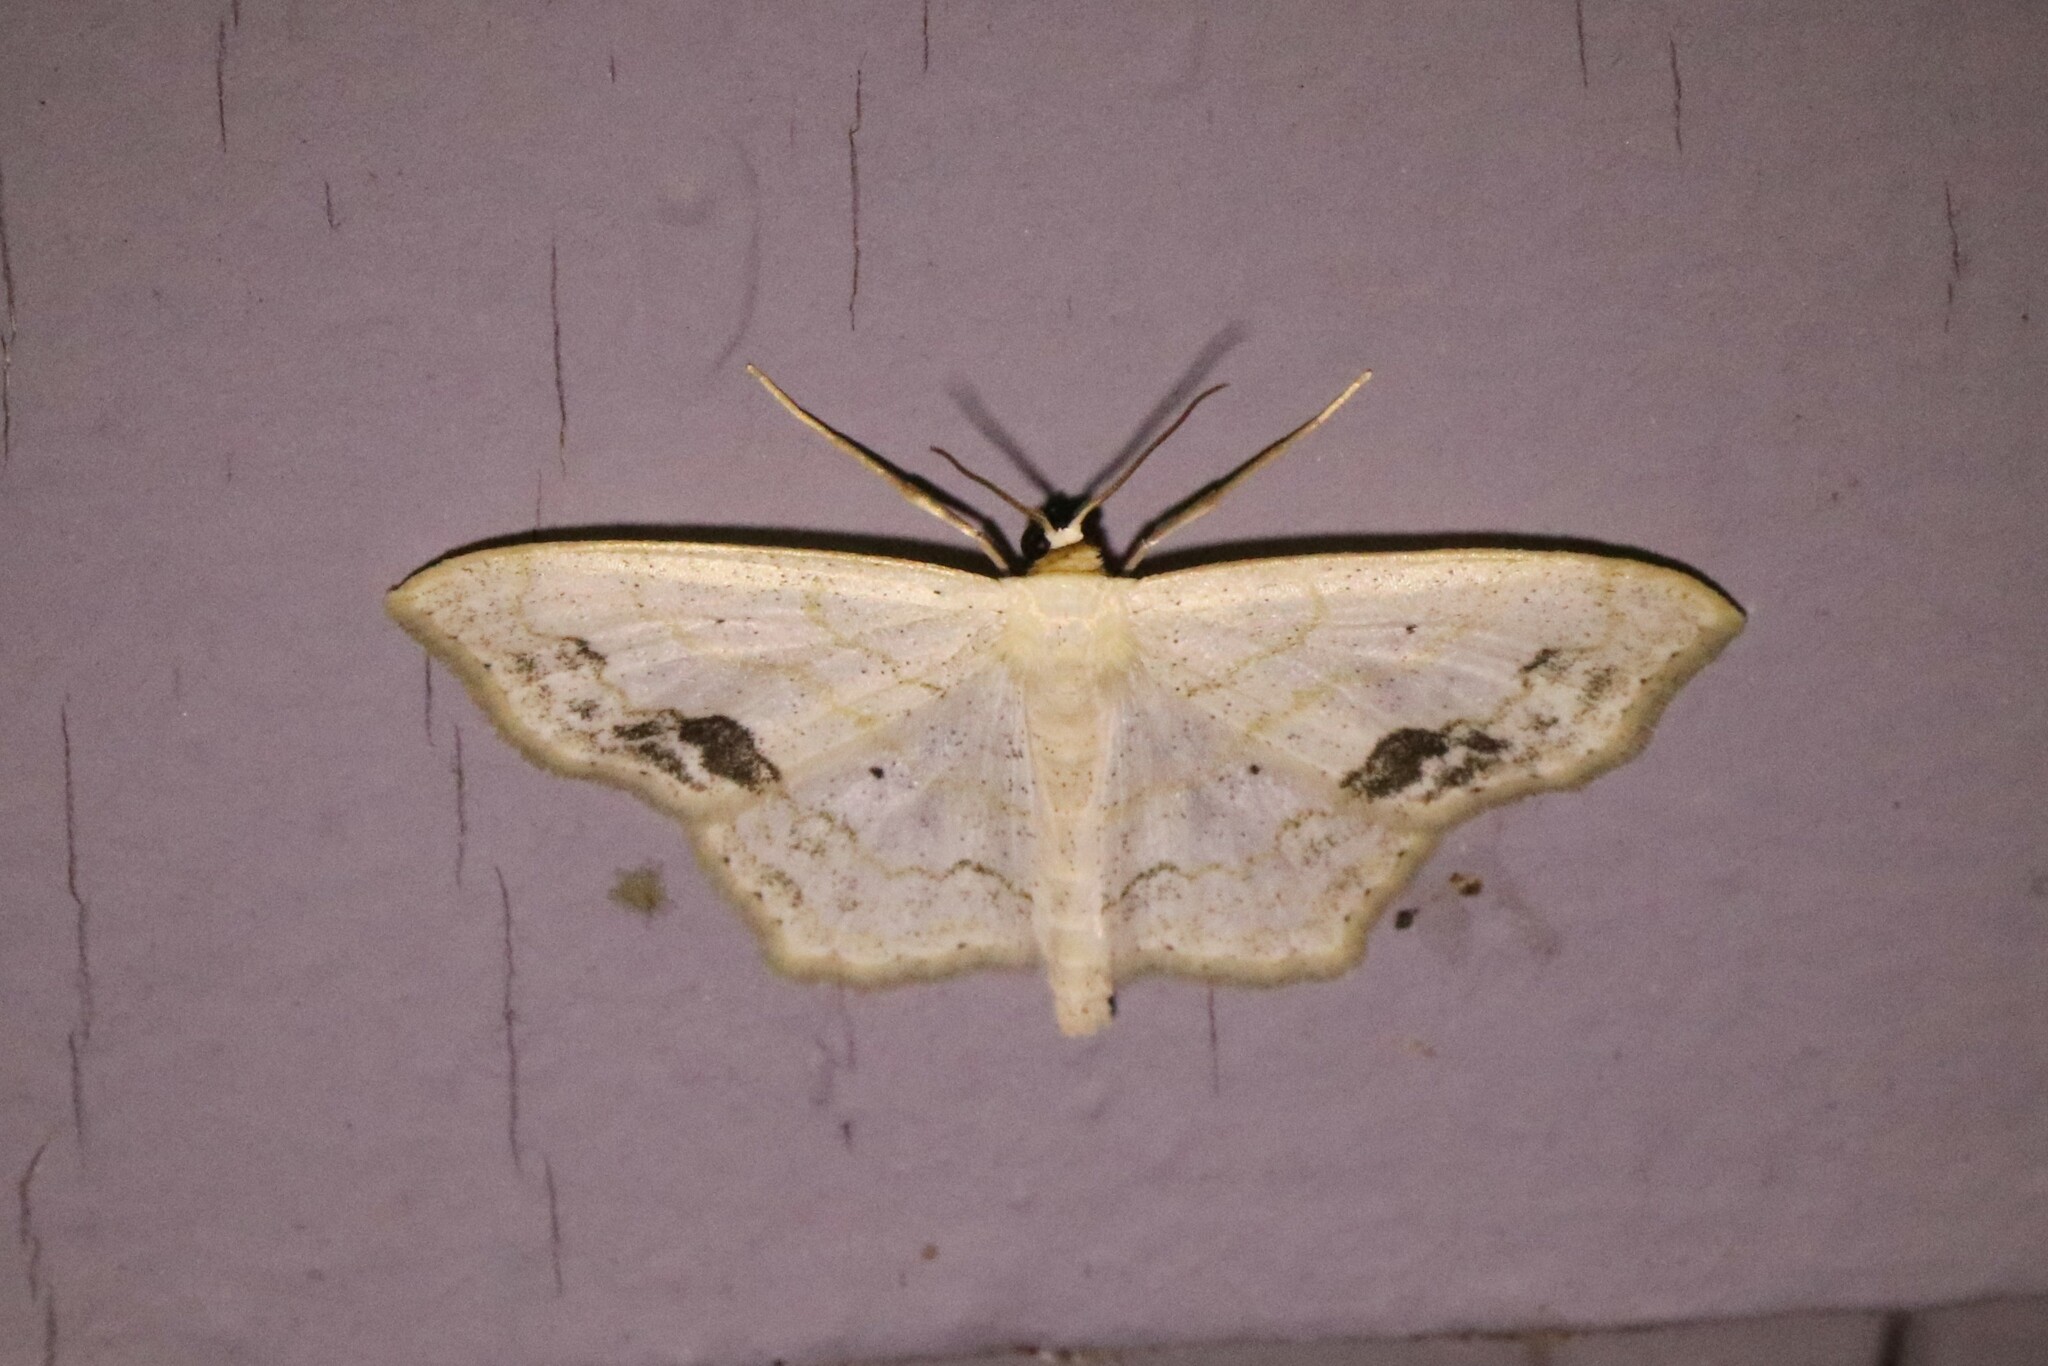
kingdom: Animalia
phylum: Arthropoda
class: Insecta
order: Lepidoptera
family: Geometridae
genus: Scopula
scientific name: Scopula limboundata
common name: Large lace border
